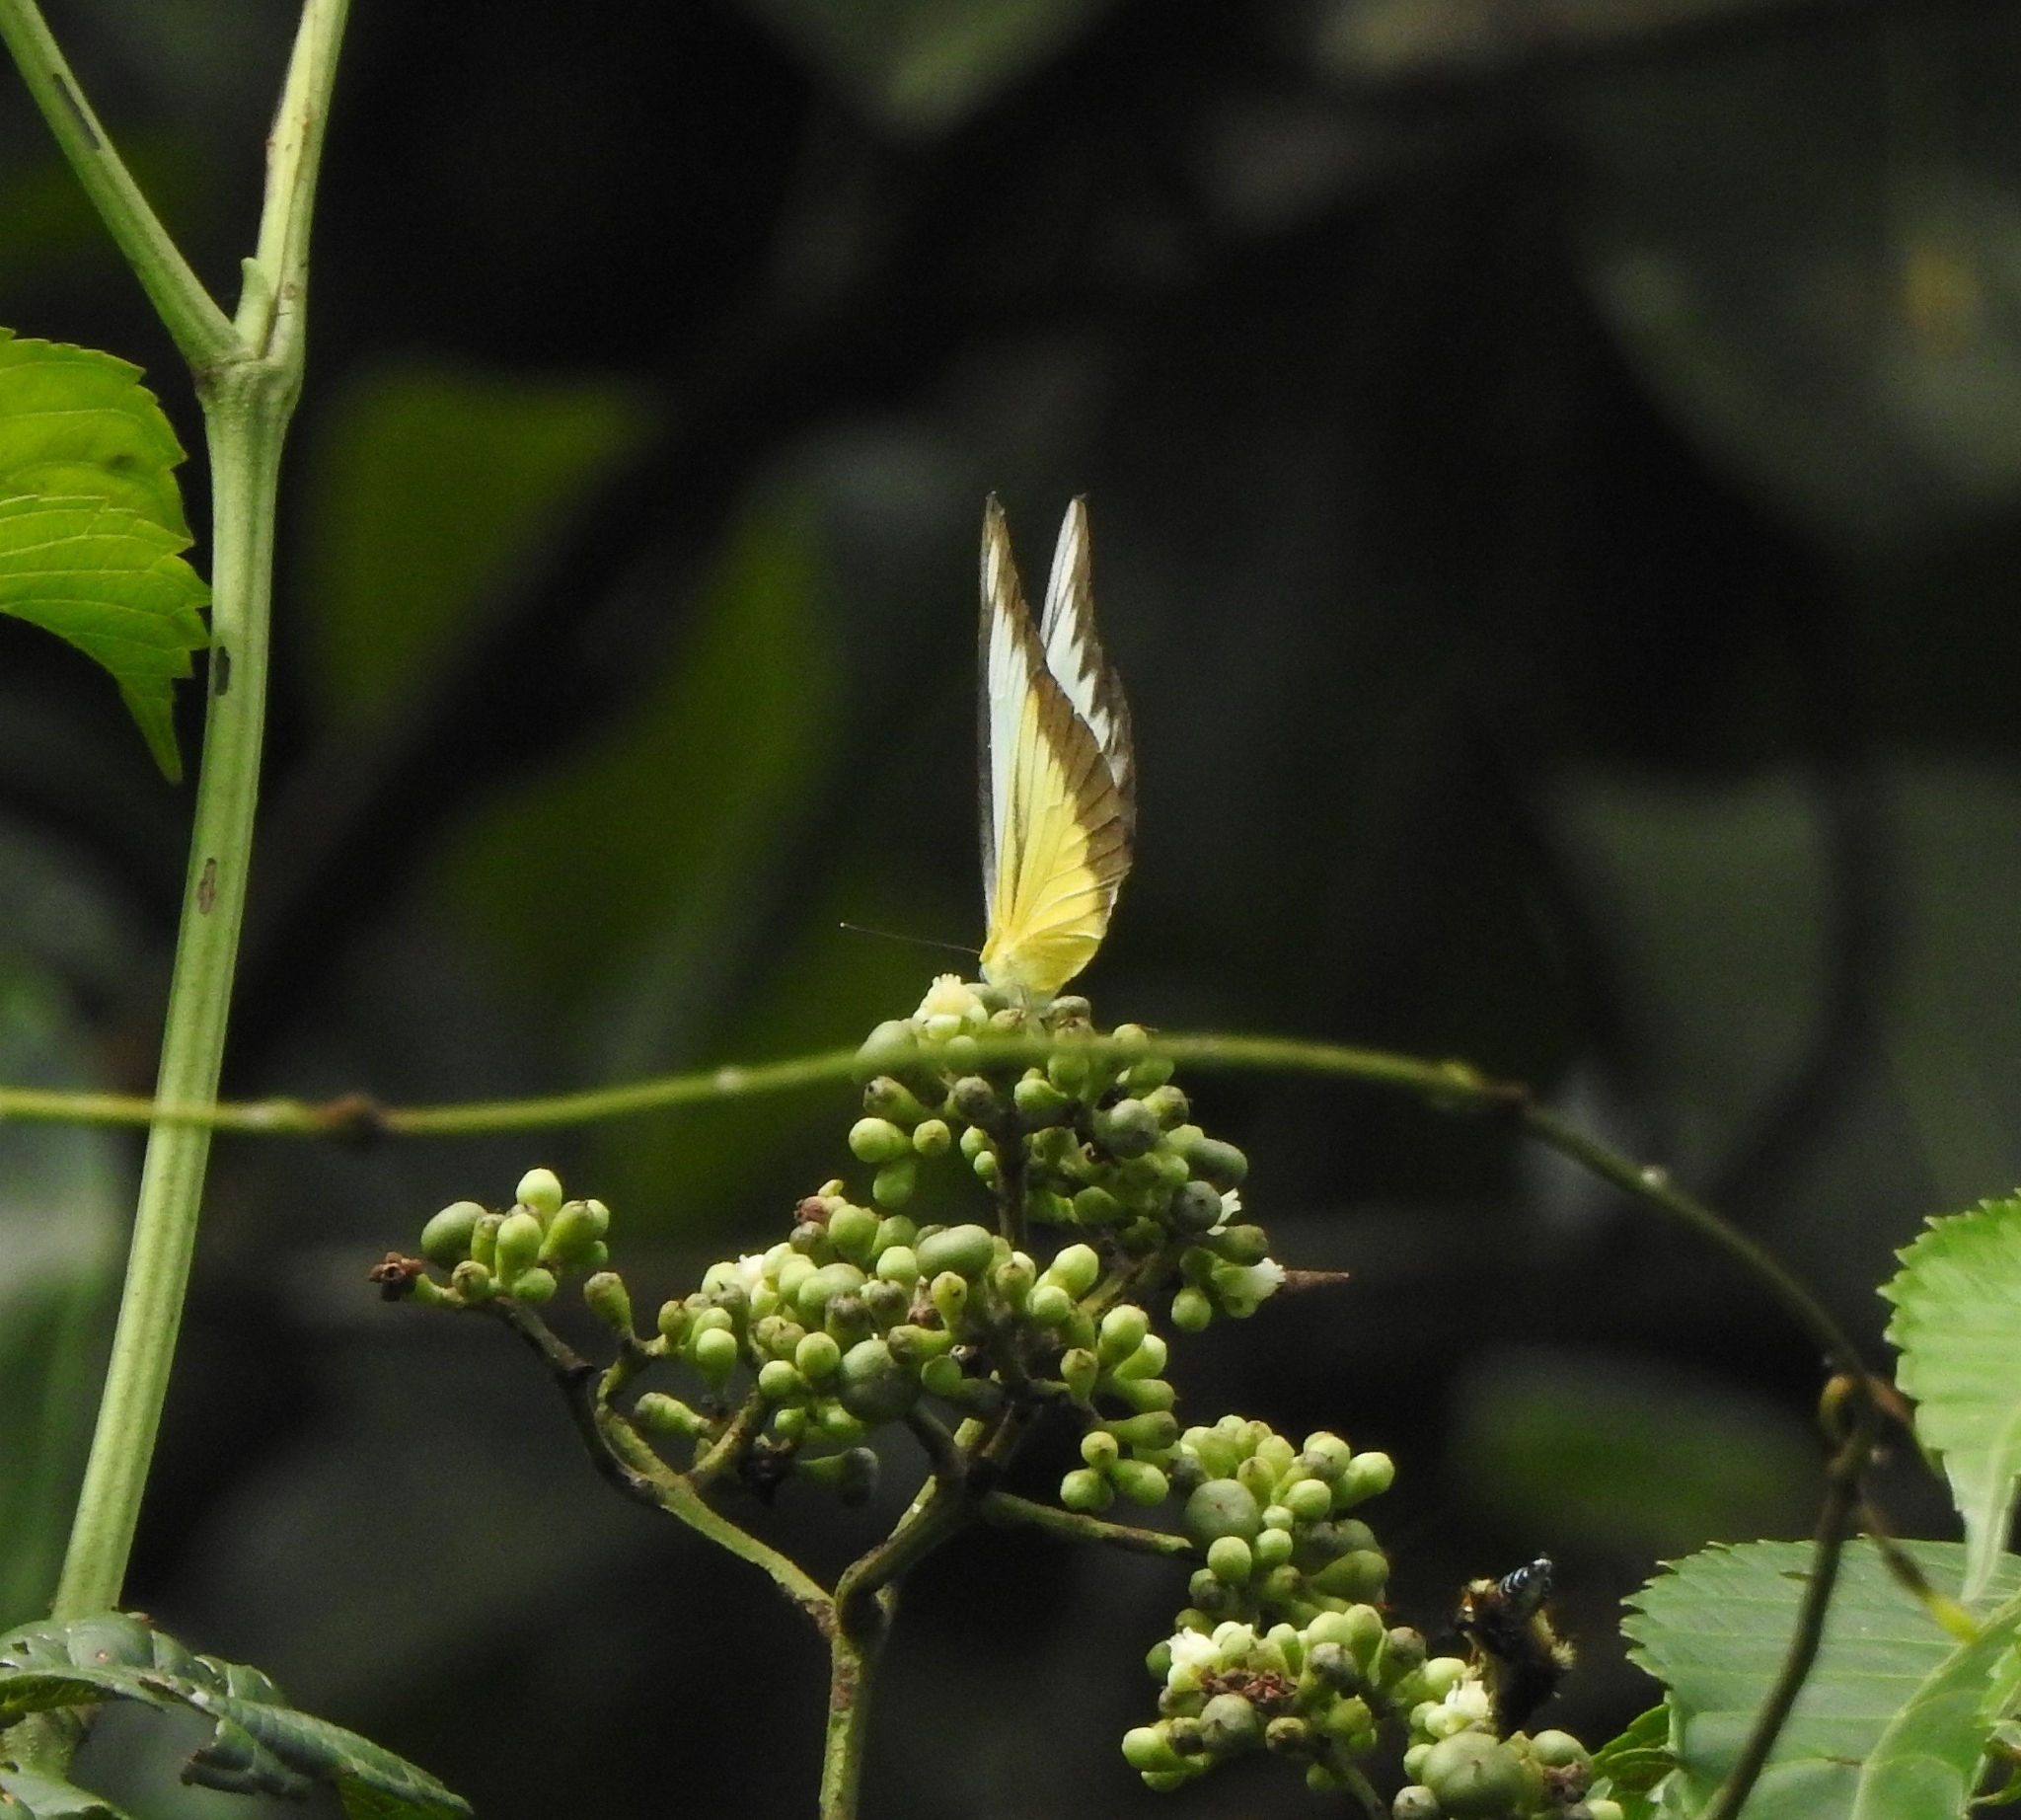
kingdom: Animalia
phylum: Arthropoda
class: Insecta
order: Lepidoptera
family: Pieridae
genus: Appias
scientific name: Appias lyncida
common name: Chocolate albatross
